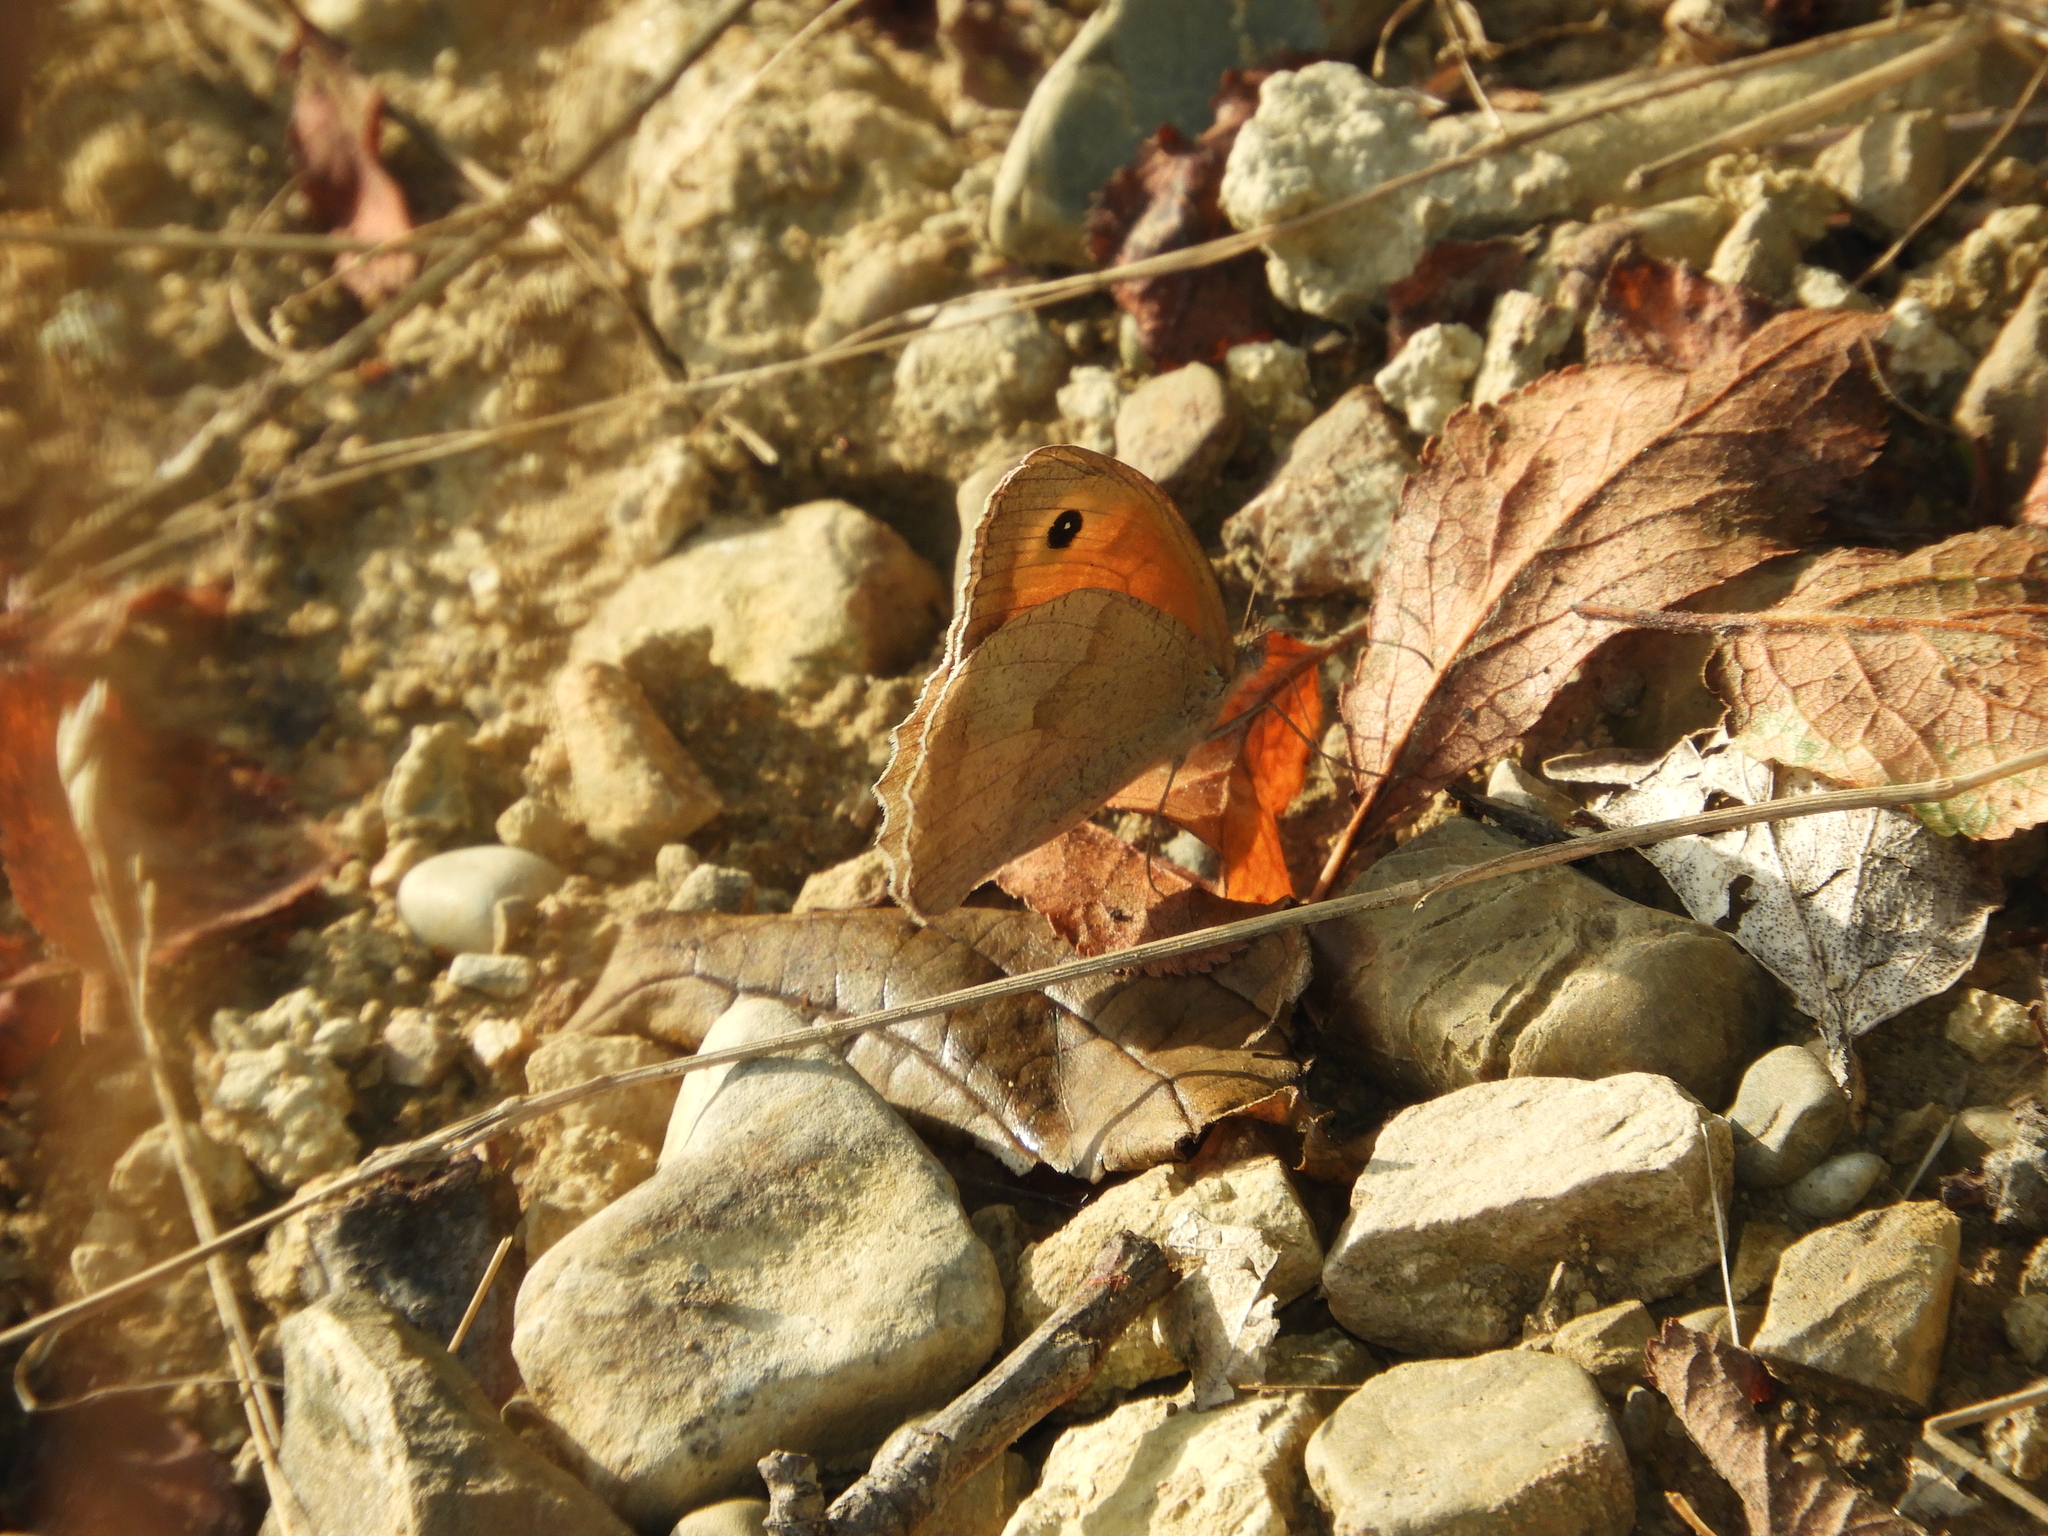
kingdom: Animalia
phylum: Arthropoda
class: Insecta
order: Lepidoptera
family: Nymphalidae
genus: Maniola
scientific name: Maniola jurtina
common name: Meadow brown
